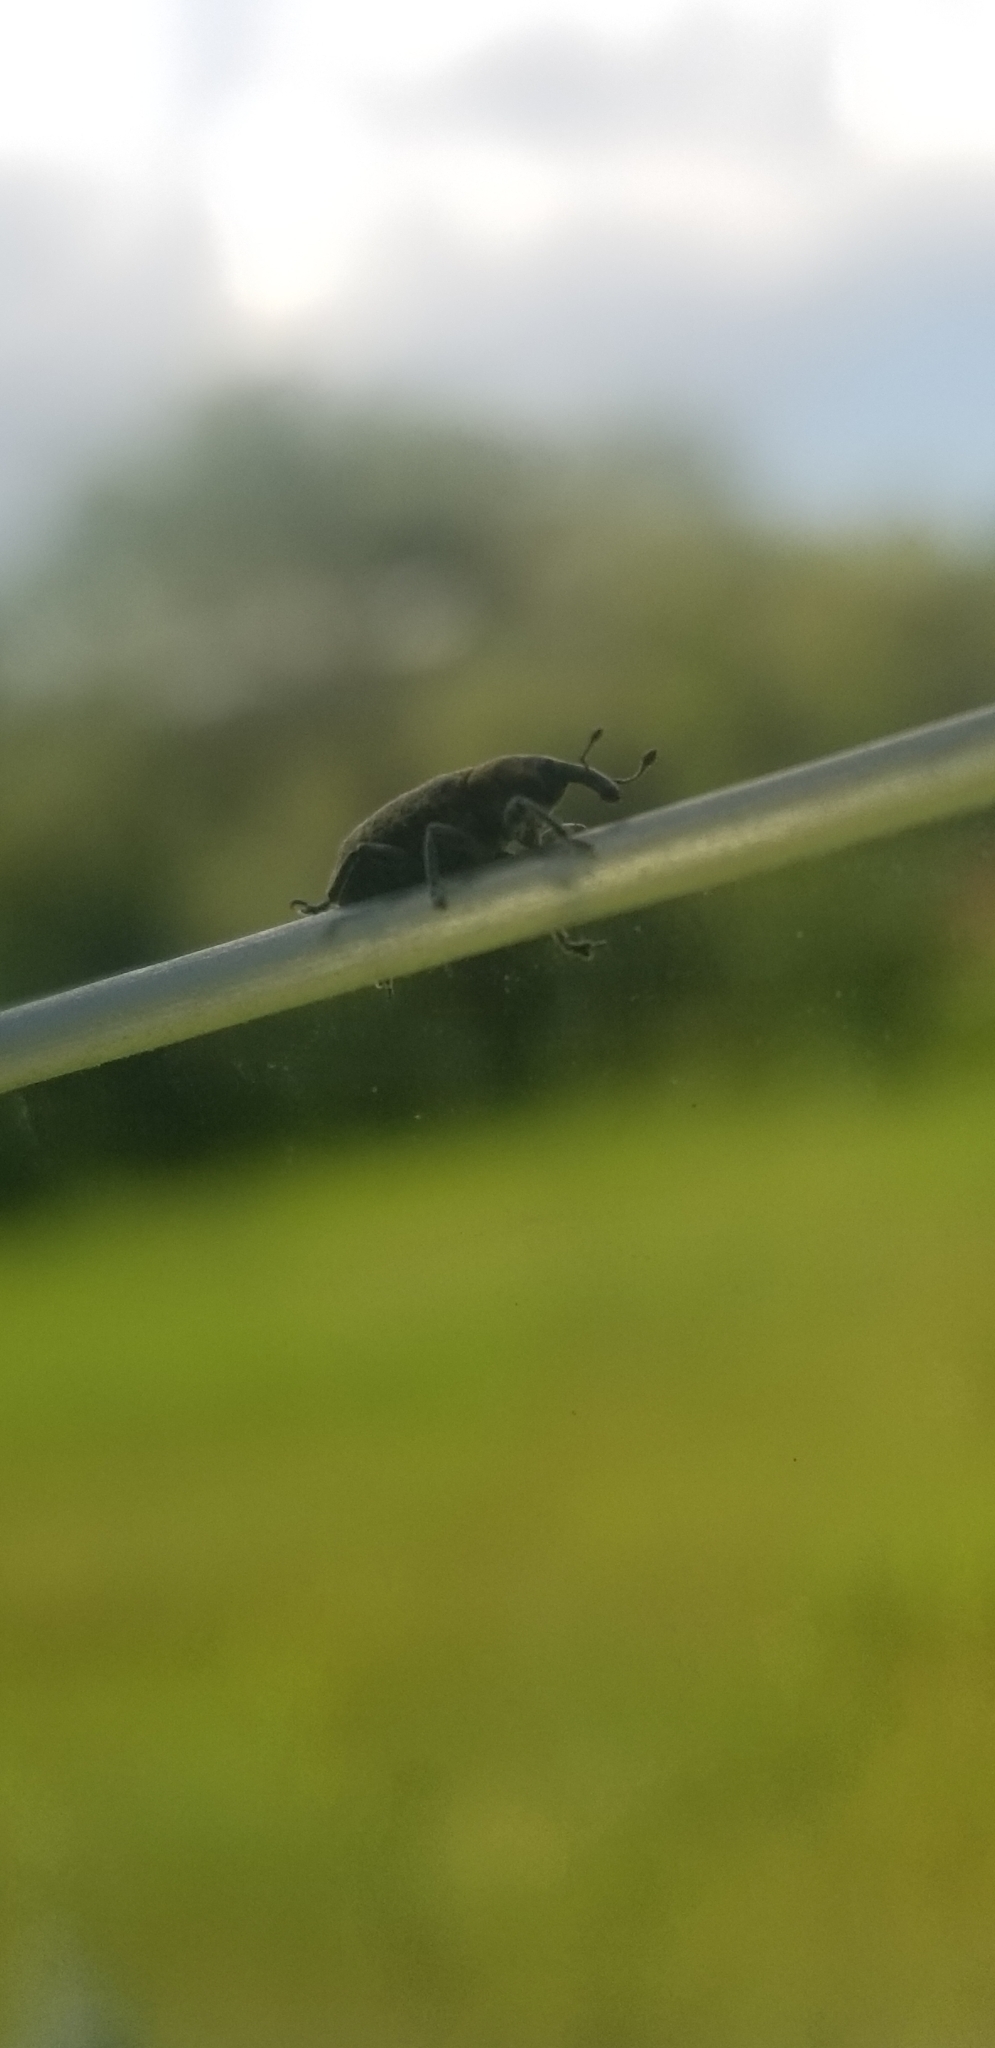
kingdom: Animalia
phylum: Arthropoda
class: Insecta
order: Coleoptera
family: Curculionidae
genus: Larinus
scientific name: Larinus carlinae
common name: Weevil
